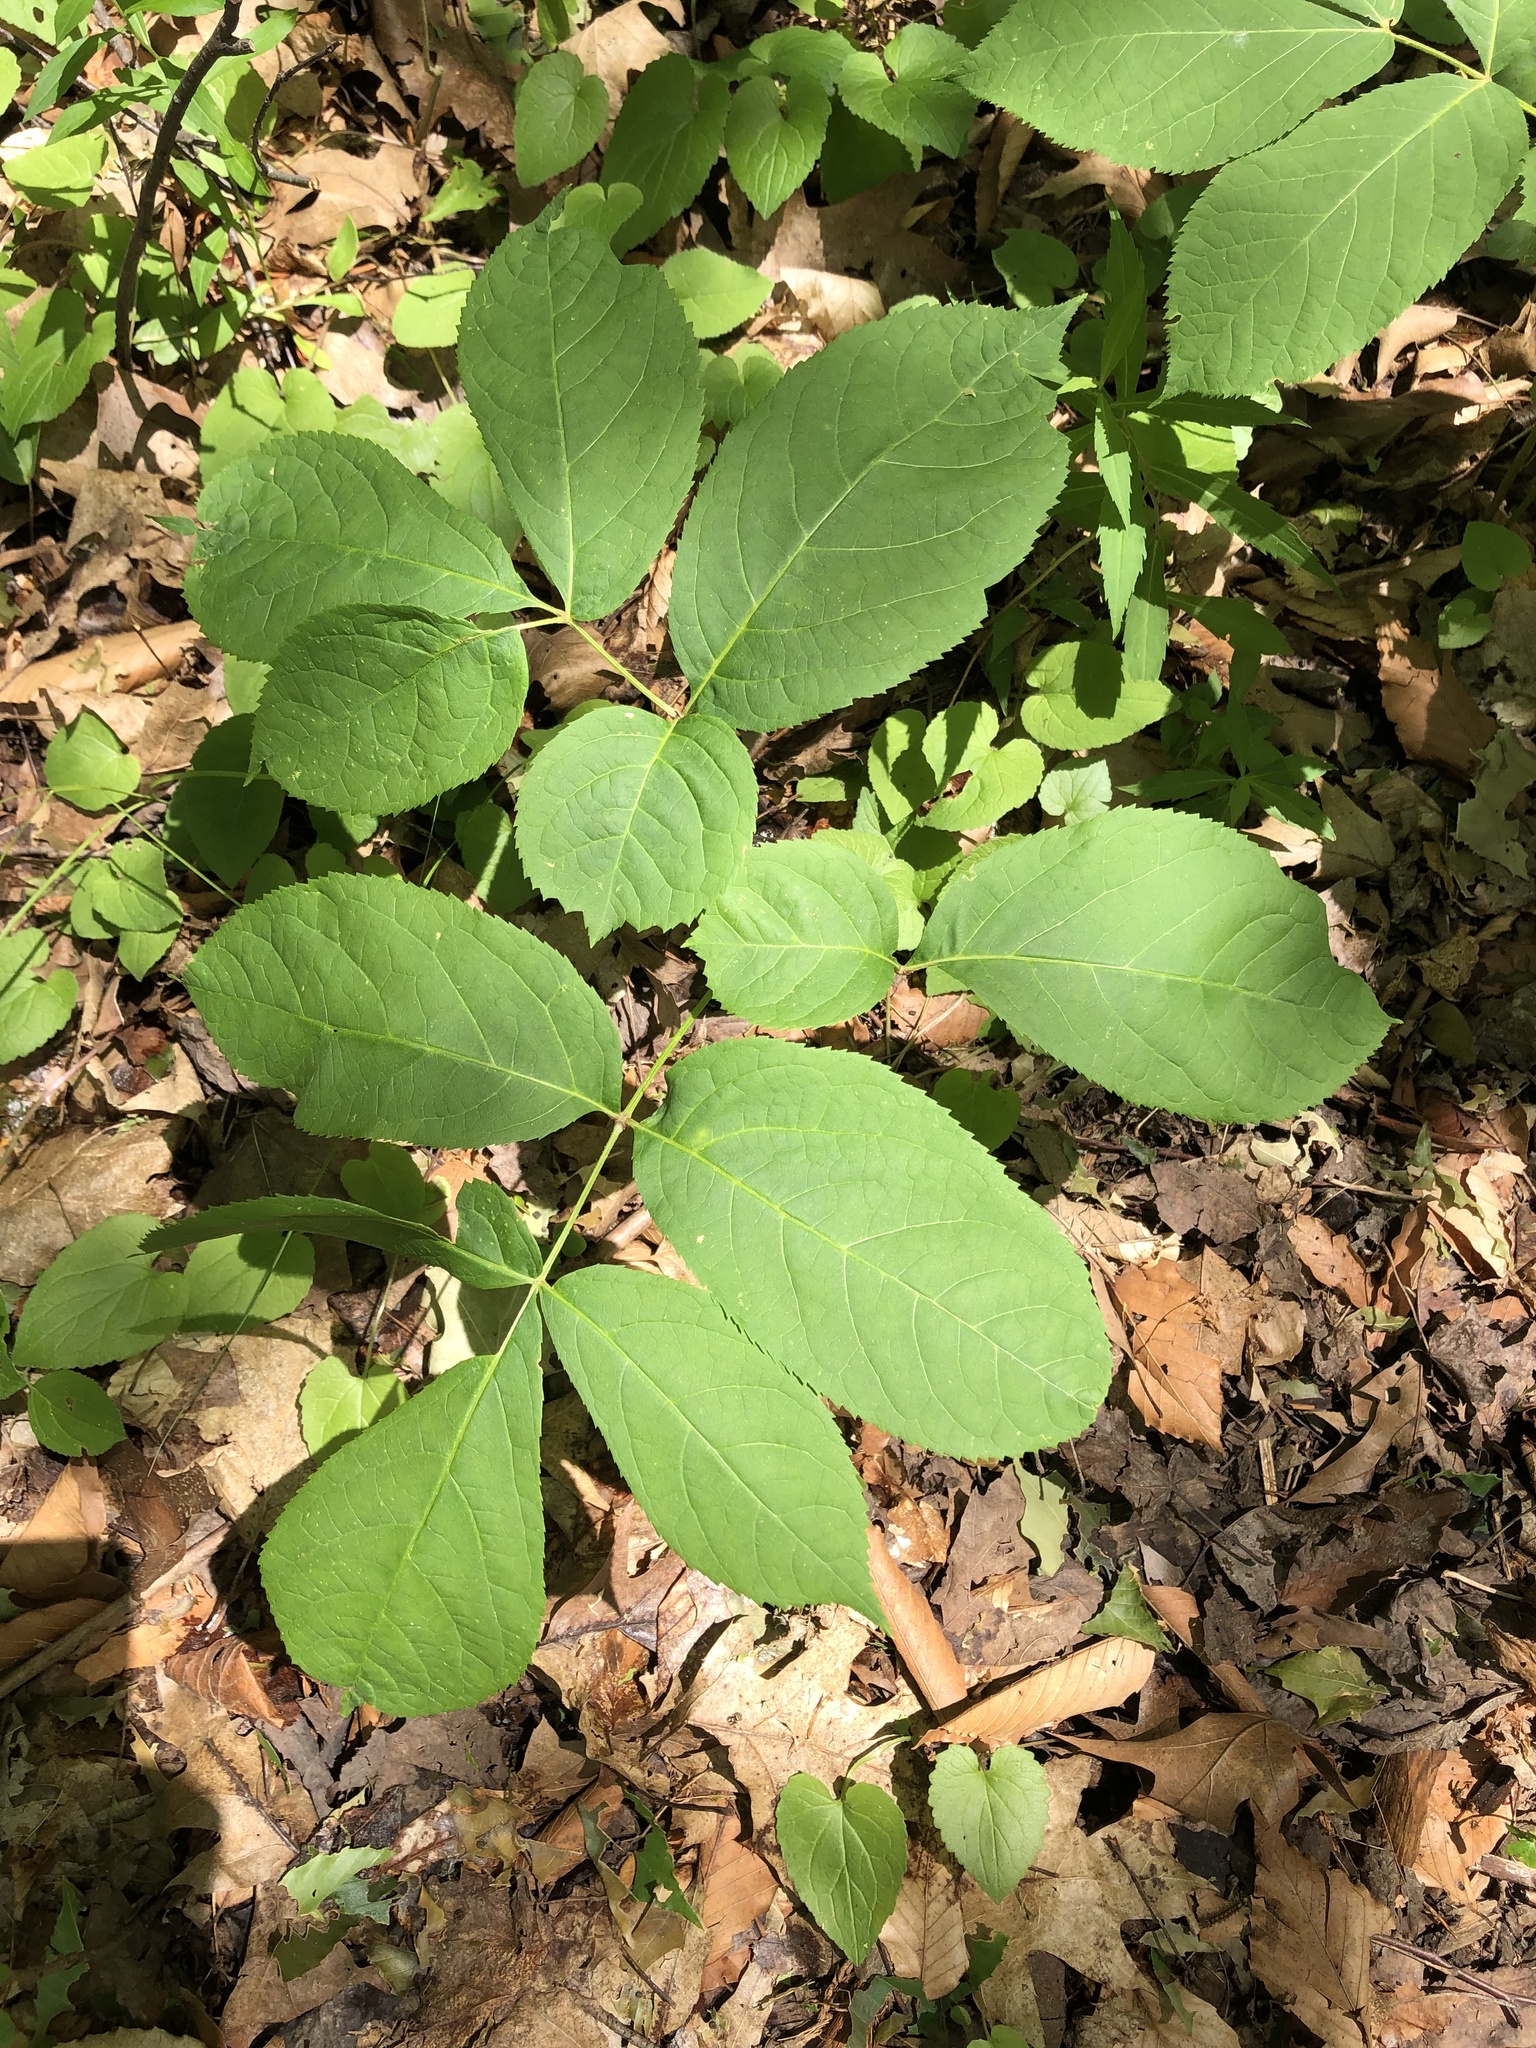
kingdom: Plantae
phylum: Tracheophyta
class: Magnoliopsida
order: Apiales
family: Araliaceae
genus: Aralia
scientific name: Aralia nudicaulis
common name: Wild sarsaparilla
